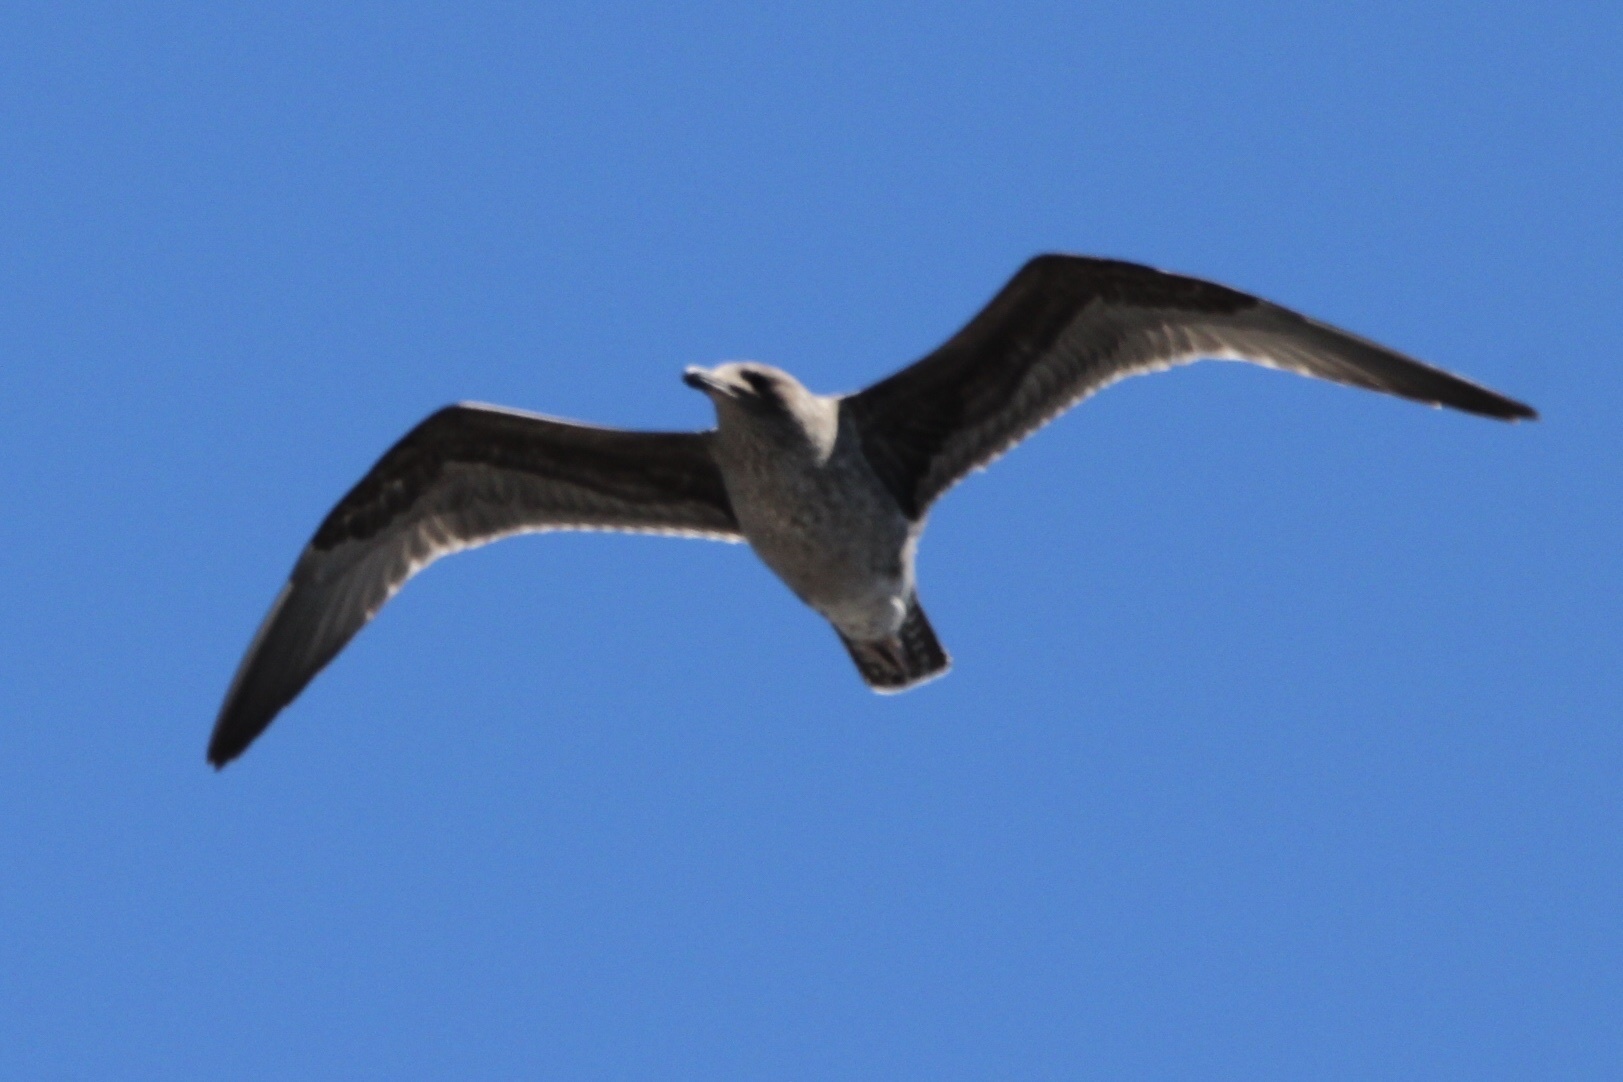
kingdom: Animalia
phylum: Chordata
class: Aves
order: Charadriiformes
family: Laridae
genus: Larus
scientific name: Larus californicus
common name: California gull
